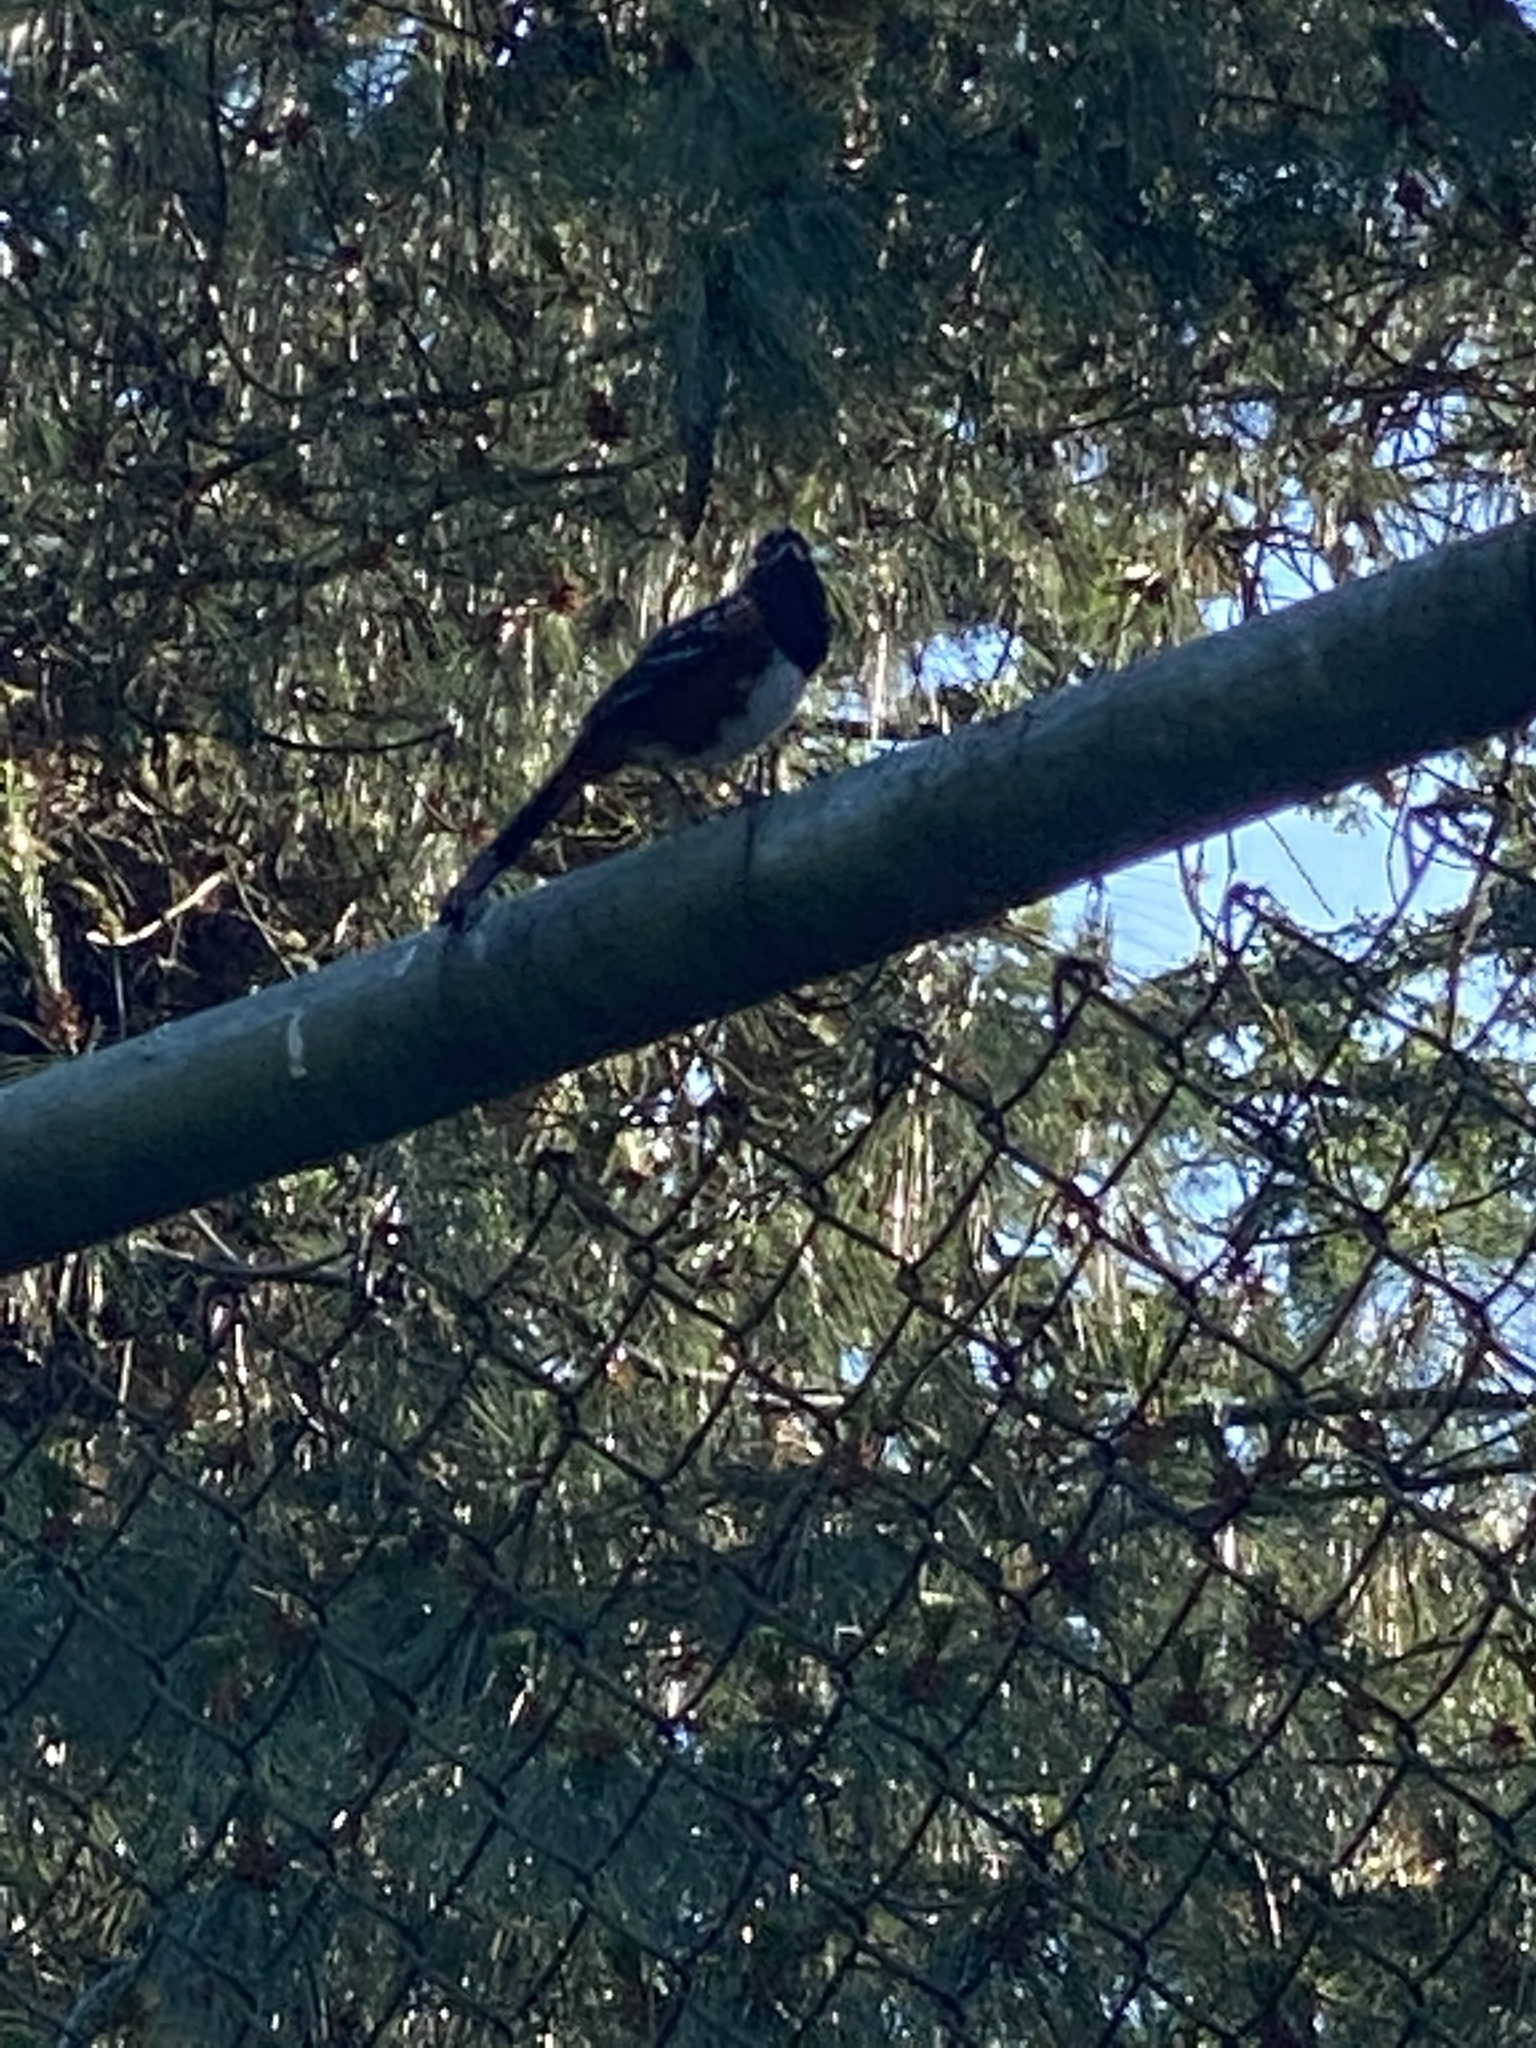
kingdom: Animalia
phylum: Chordata
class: Aves
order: Passeriformes
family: Passerellidae
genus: Pipilo
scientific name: Pipilo maculatus
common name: Spotted towhee
